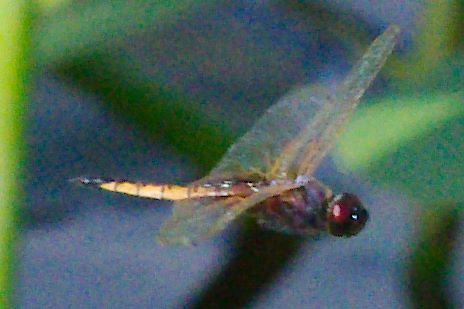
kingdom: Animalia
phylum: Arthropoda
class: Insecta
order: Odonata
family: Libellulidae
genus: Miathyria
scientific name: Miathyria marcella
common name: Hyacinth glider
